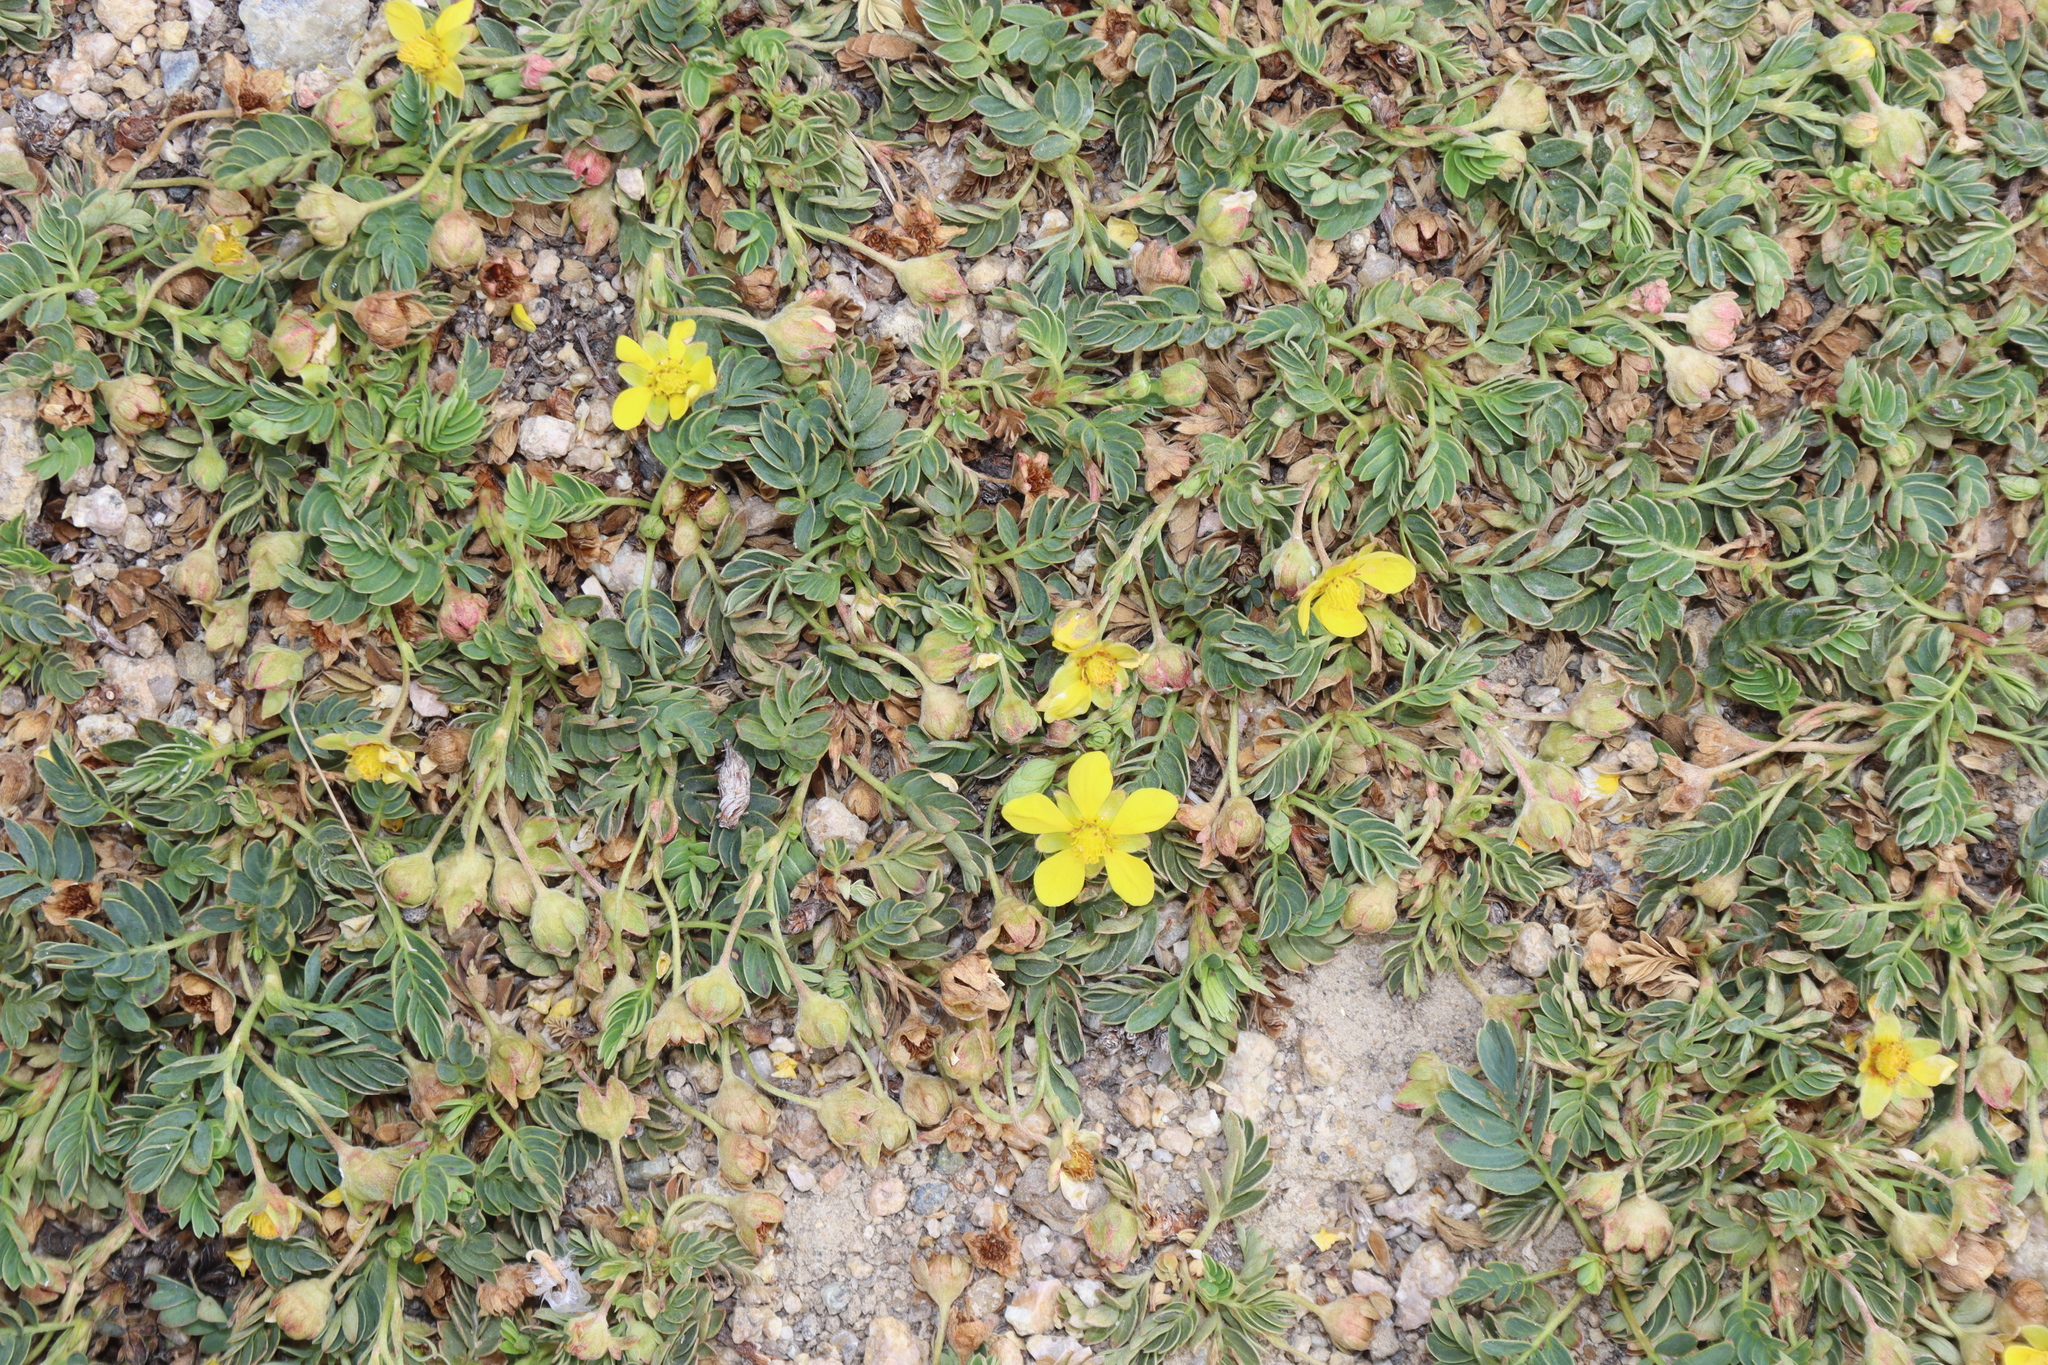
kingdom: Plantae
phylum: Tracheophyta
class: Magnoliopsida
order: Rosales
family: Rosaceae
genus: Sibbaldianthe
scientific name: Sibbaldianthe bifurca
